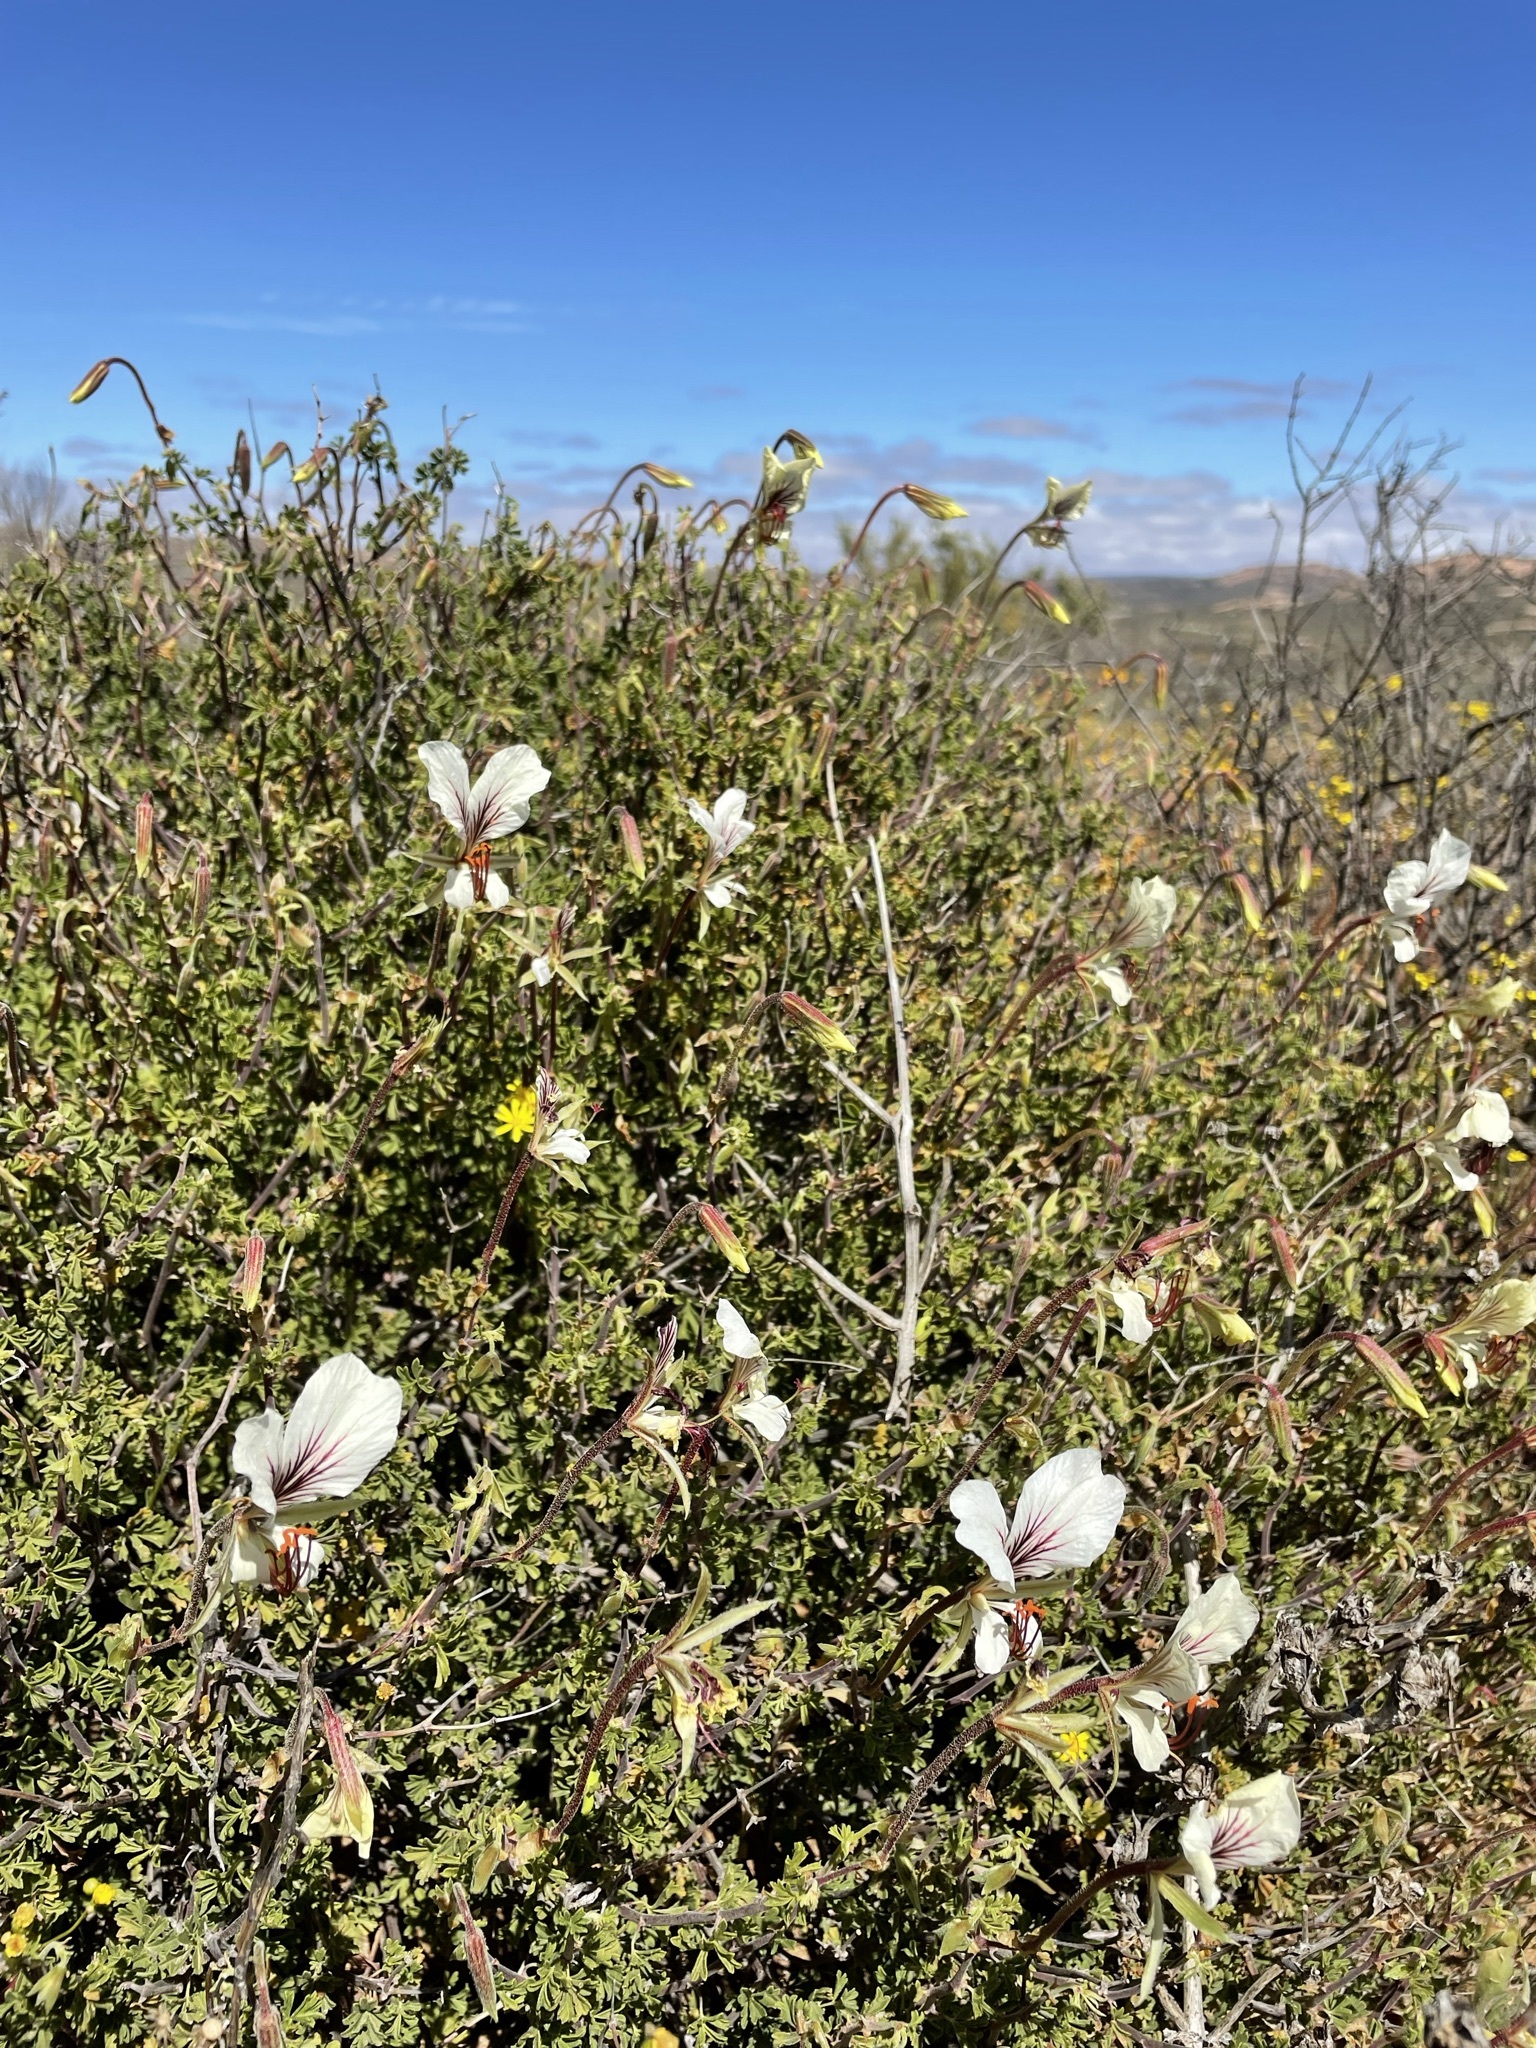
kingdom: Plantae
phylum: Tracheophyta
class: Magnoliopsida
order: Geraniales
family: Geraniaceae
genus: Pelargonium
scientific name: Pelargonium praemorsum
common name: Quinate-leaf pelargonium
